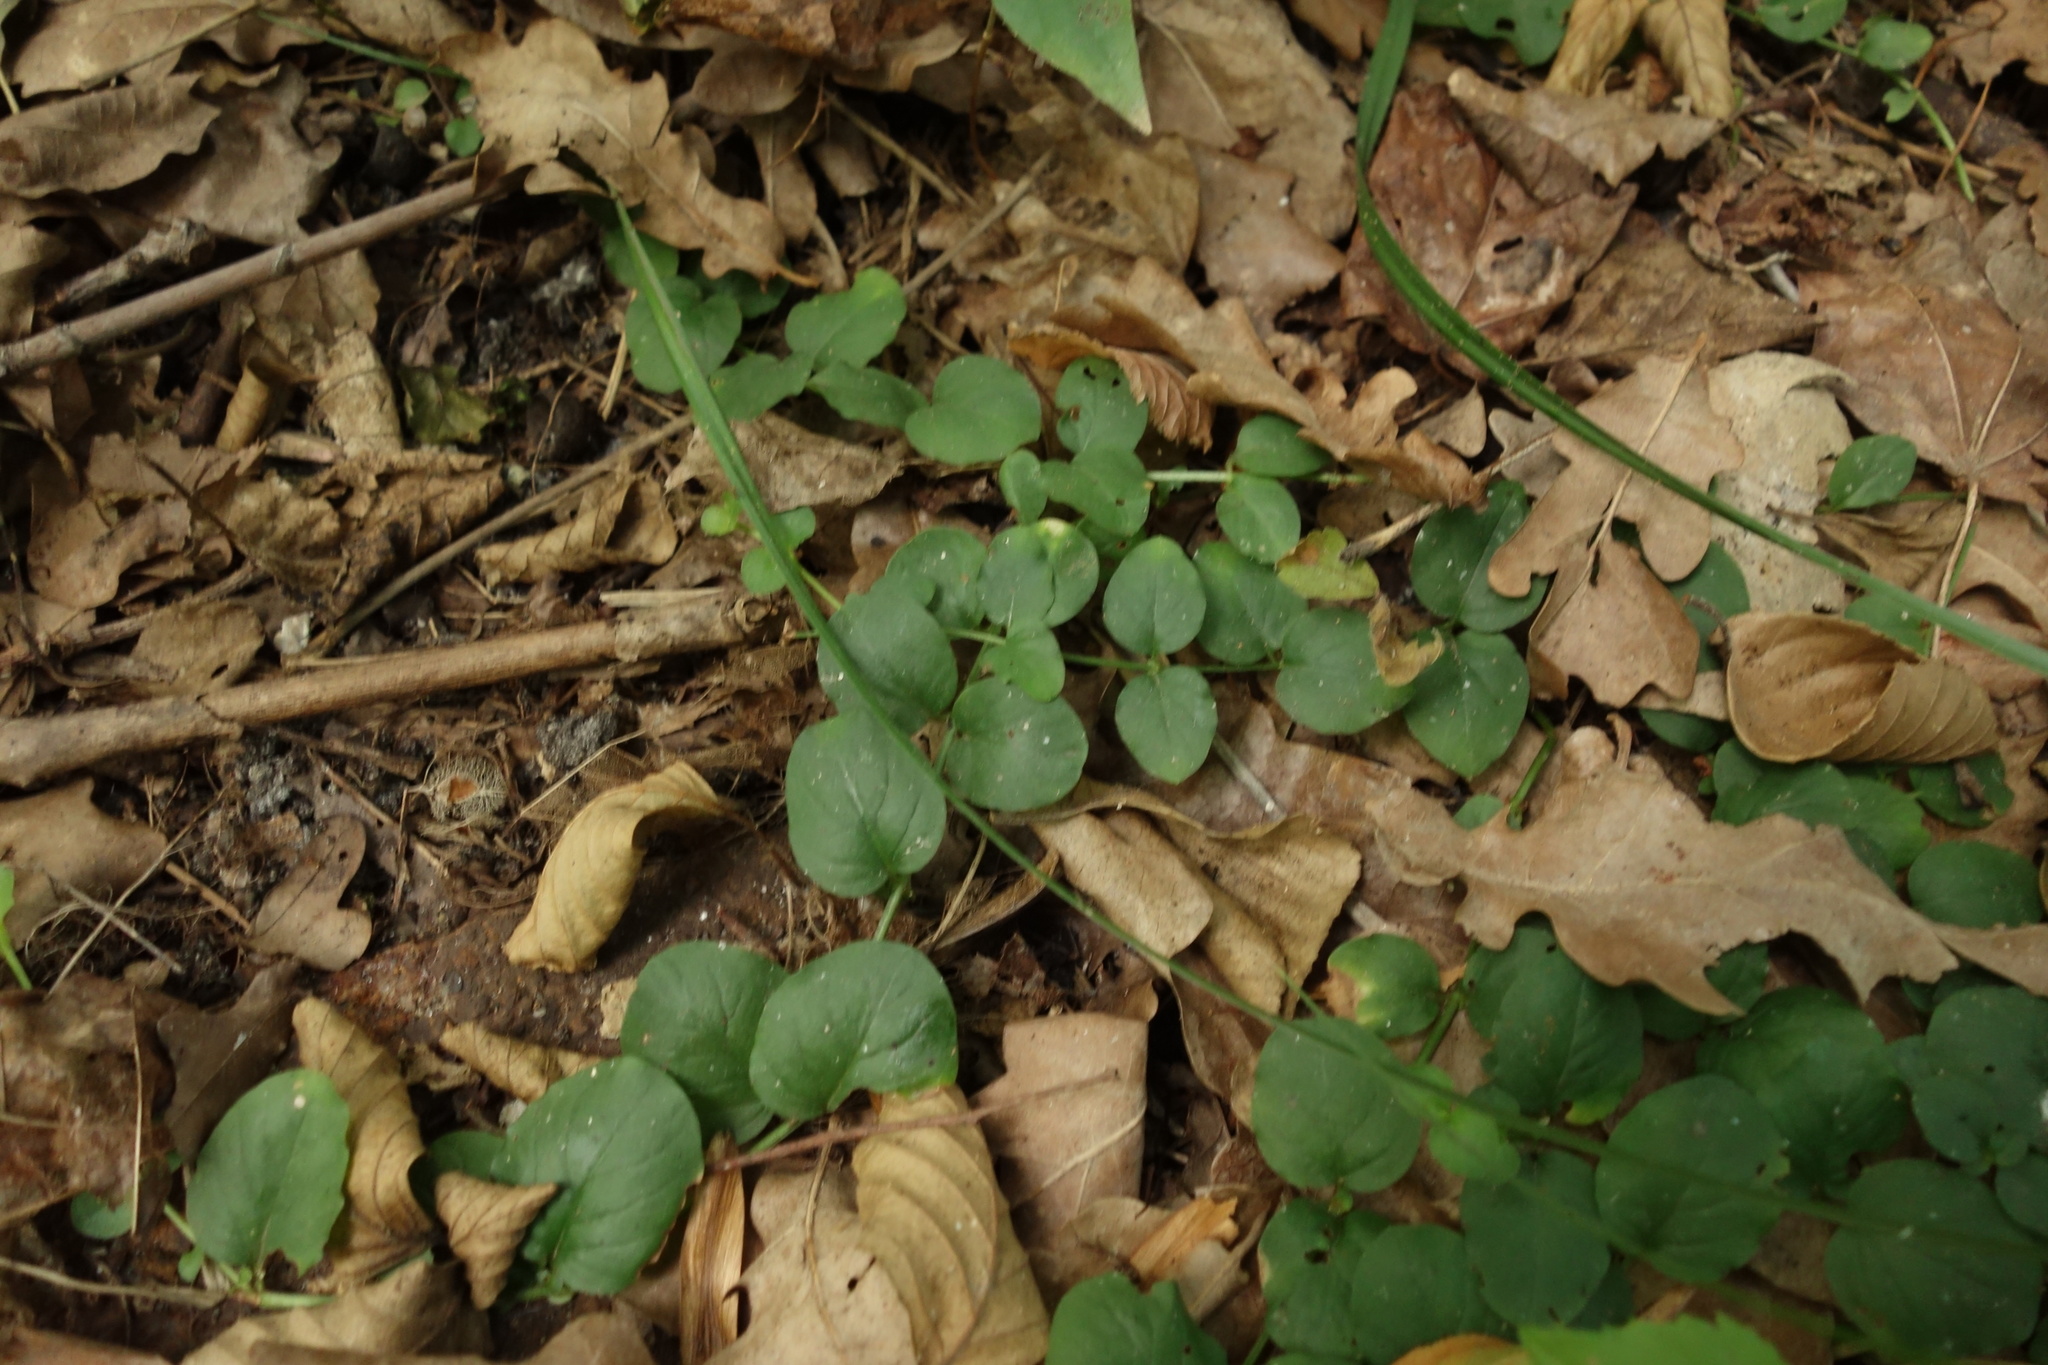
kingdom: Plantae
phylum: Tracheophyta
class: Magnoliopsida
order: Ericales
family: Primulaceae
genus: Lysimachia
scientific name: Lysimachia nummularia
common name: Moneywort
